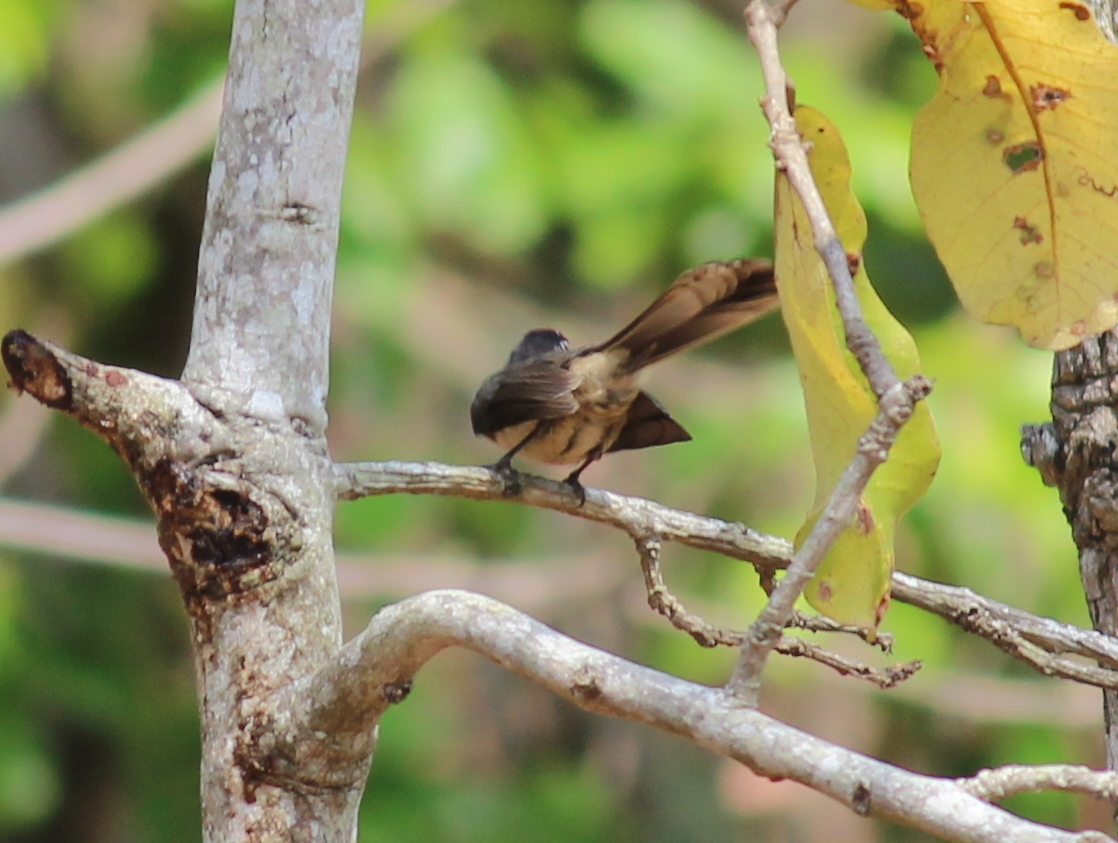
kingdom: Animalia
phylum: Chordata
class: Aves
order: Passeriformes
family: Rhipiduridae
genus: Rhipidura
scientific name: Rhipidura albogularis
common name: White-spotted fantail
